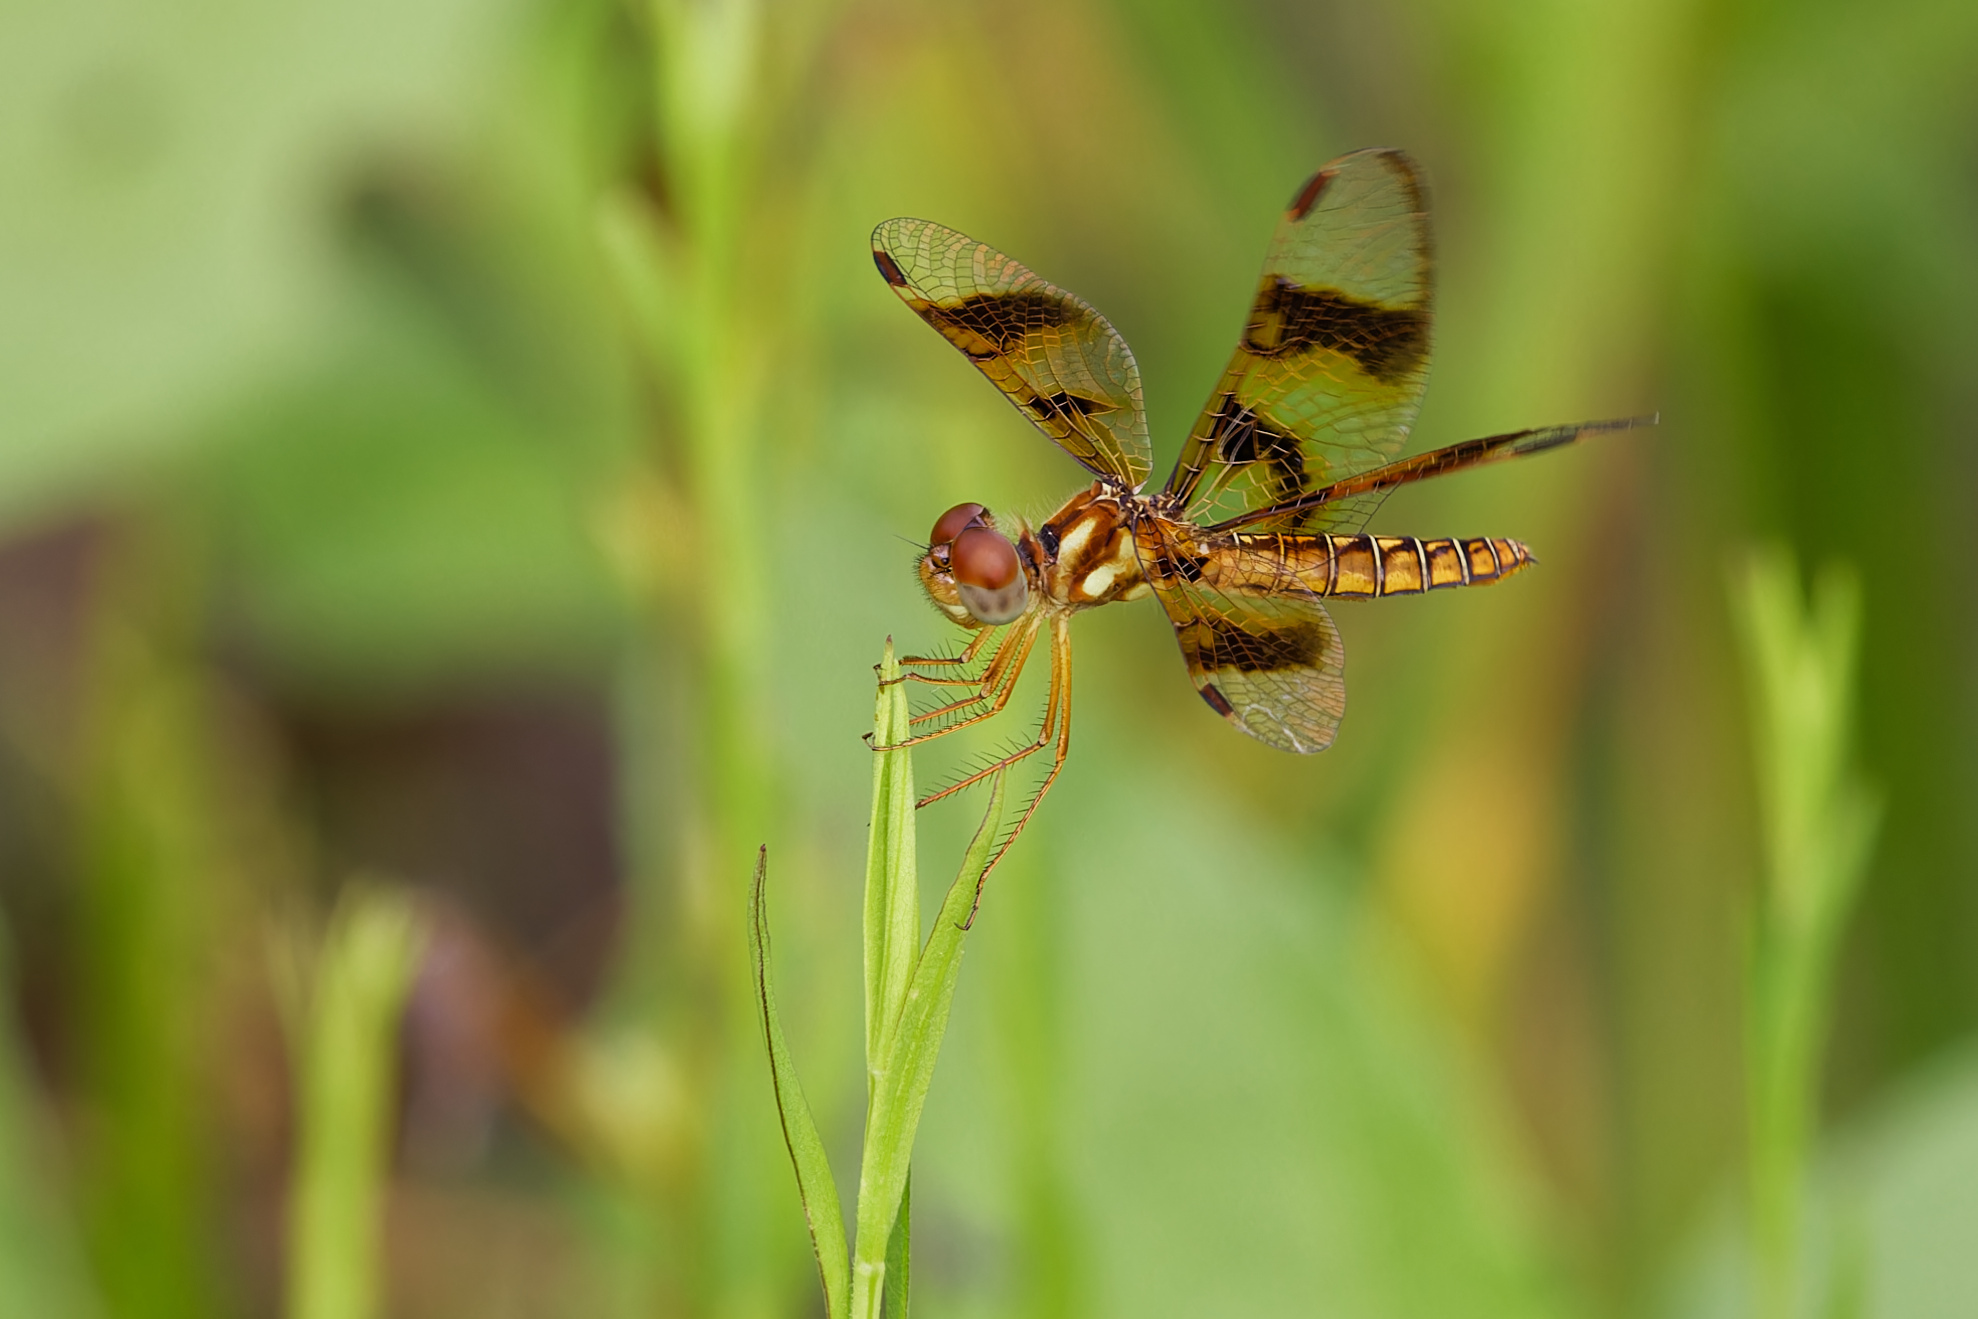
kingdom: Animalia
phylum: Arthropoda
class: Insecta
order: Odonata
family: Libellulidae
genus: Perithemis
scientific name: Perithemis tenera
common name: Eastern amberwing
